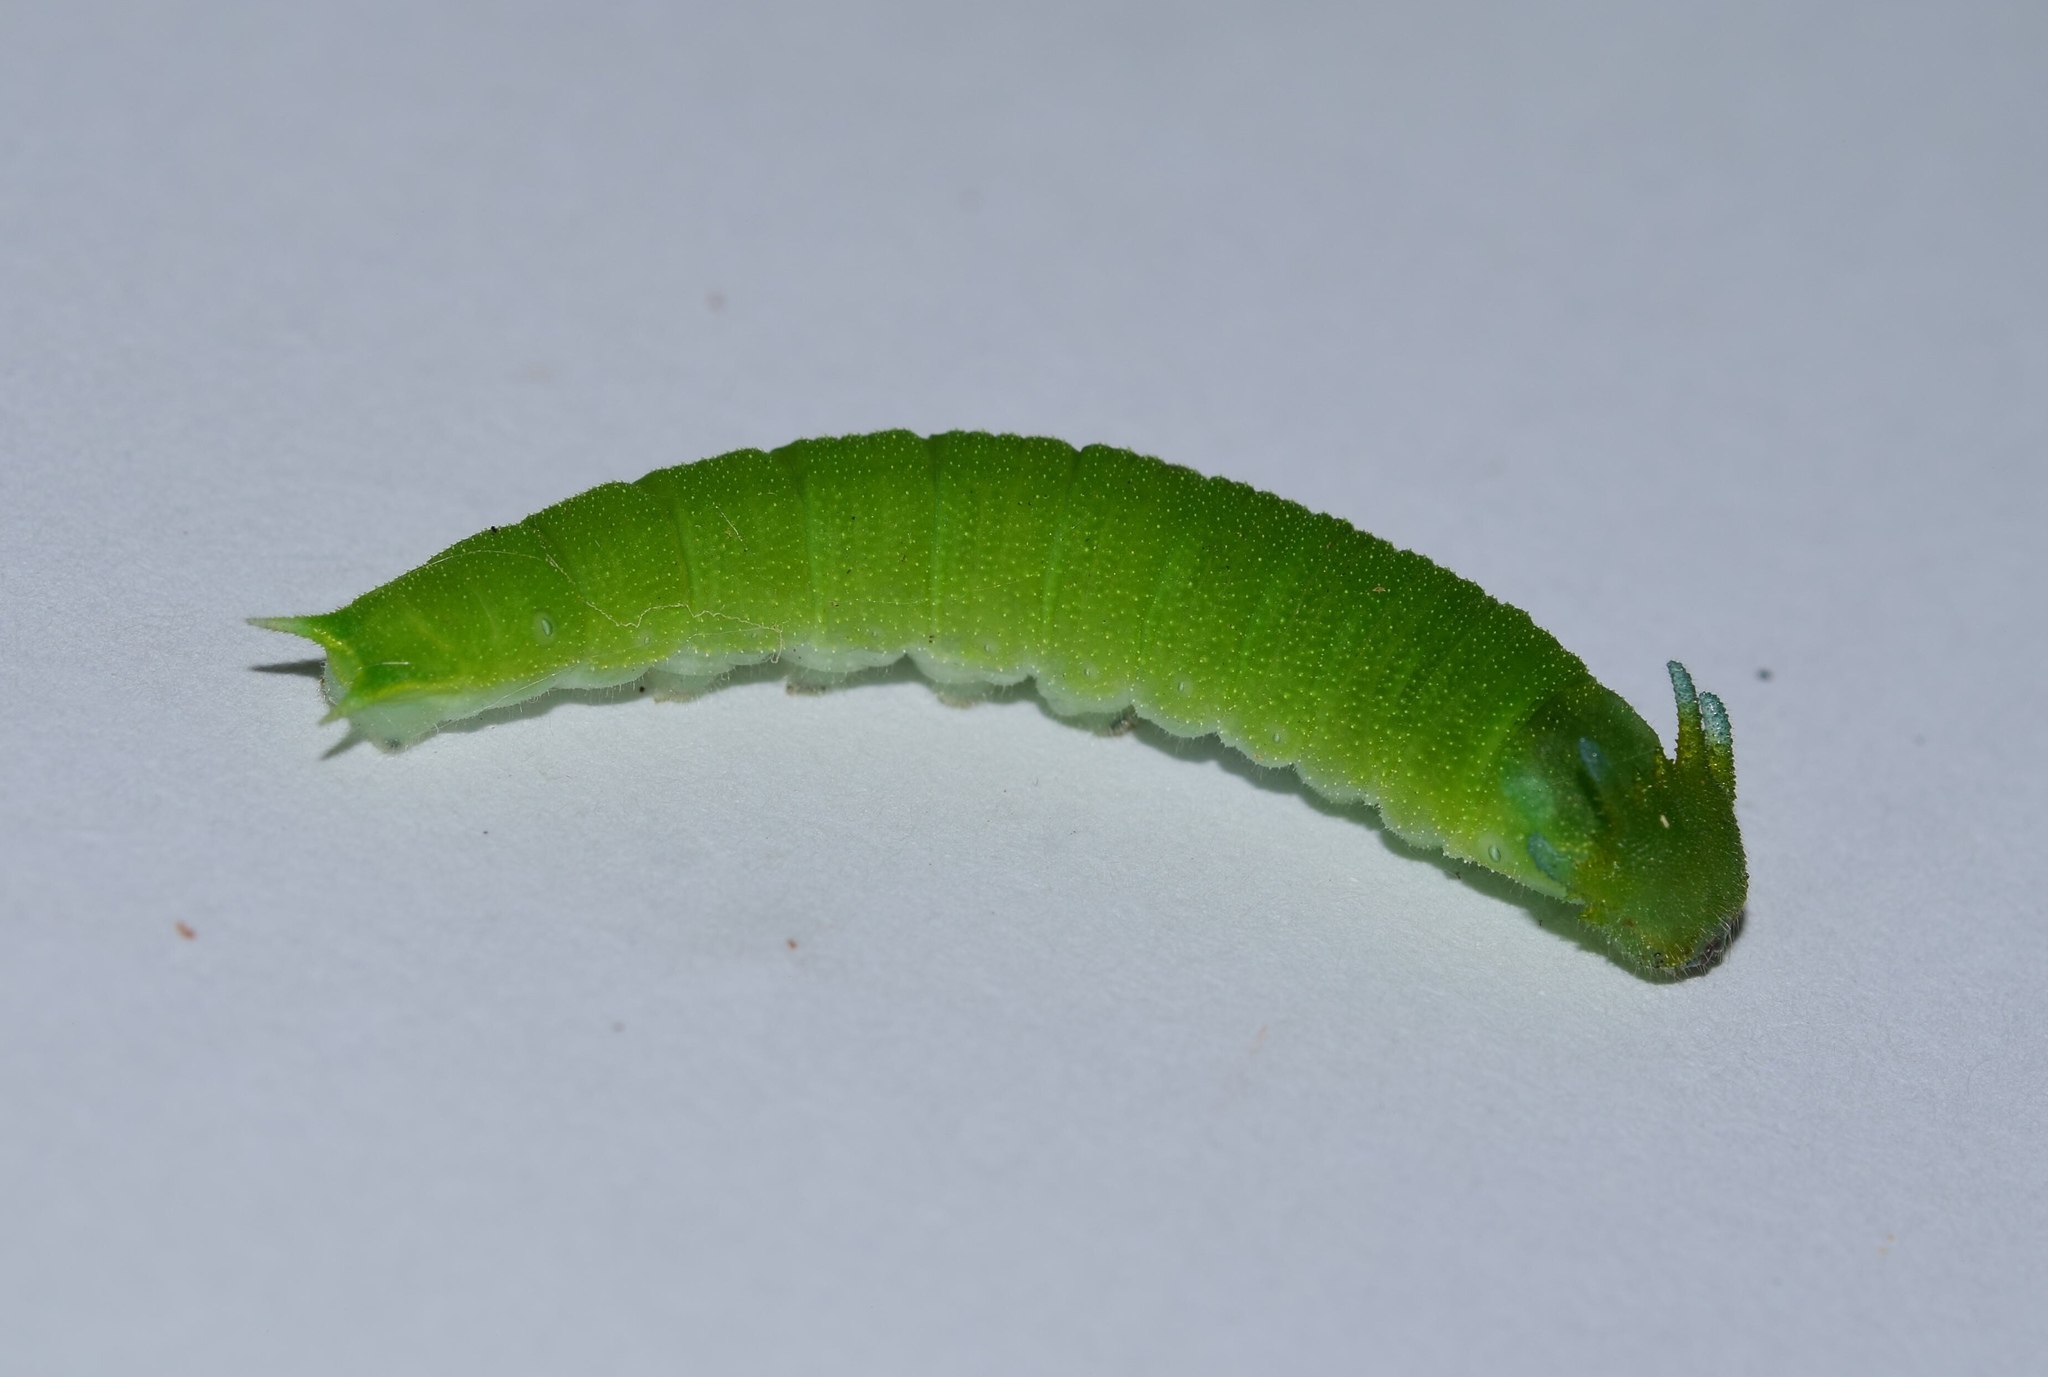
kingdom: Animalia
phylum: Arthropoda
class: Insecta
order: Lepidoptera
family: Nymphalidae
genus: Charaxes
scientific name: Charaxes brutus
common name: White-barred charaxes
